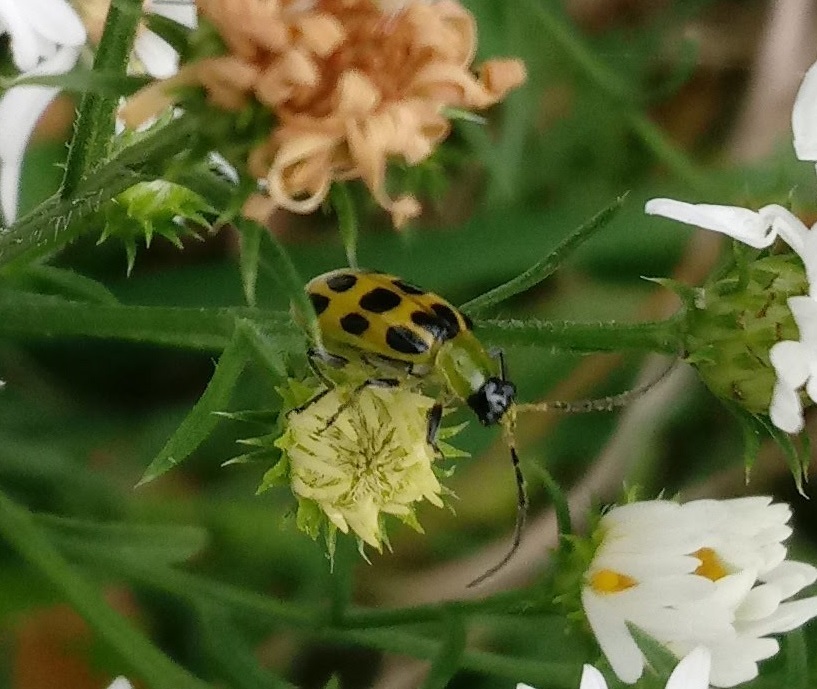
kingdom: Animalia
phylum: Arthropoda
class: Insecta
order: Coleoptera
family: Chrysomelidae
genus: Diabrotica
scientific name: Diabrotica undecimpunctata
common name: Spotted cucumber beetle
